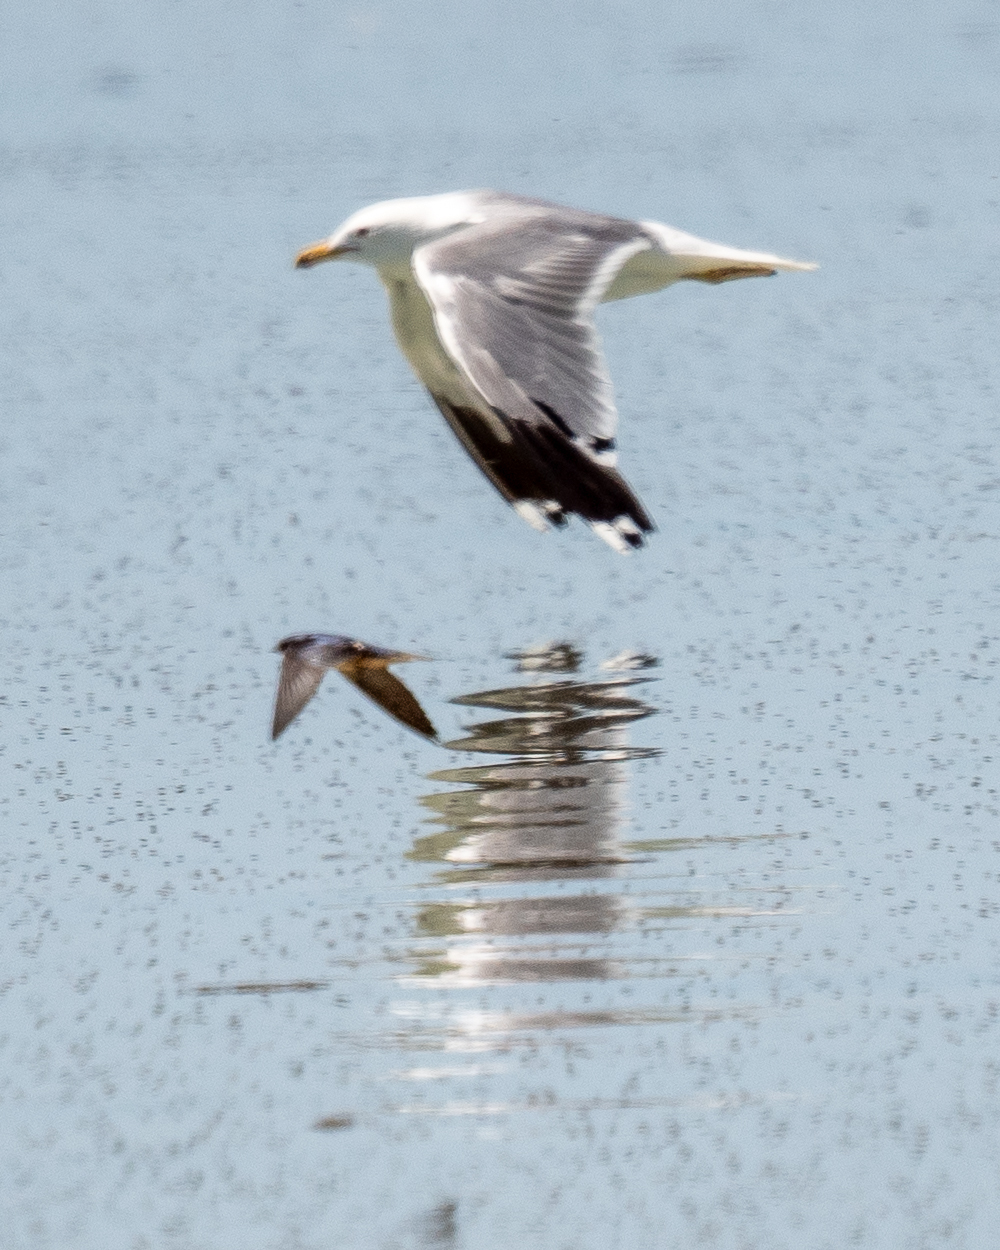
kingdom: Animalia
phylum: Chordata
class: Aves
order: Charadriiformes
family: Laridae
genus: Larus
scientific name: Larus californicus
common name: California gull
